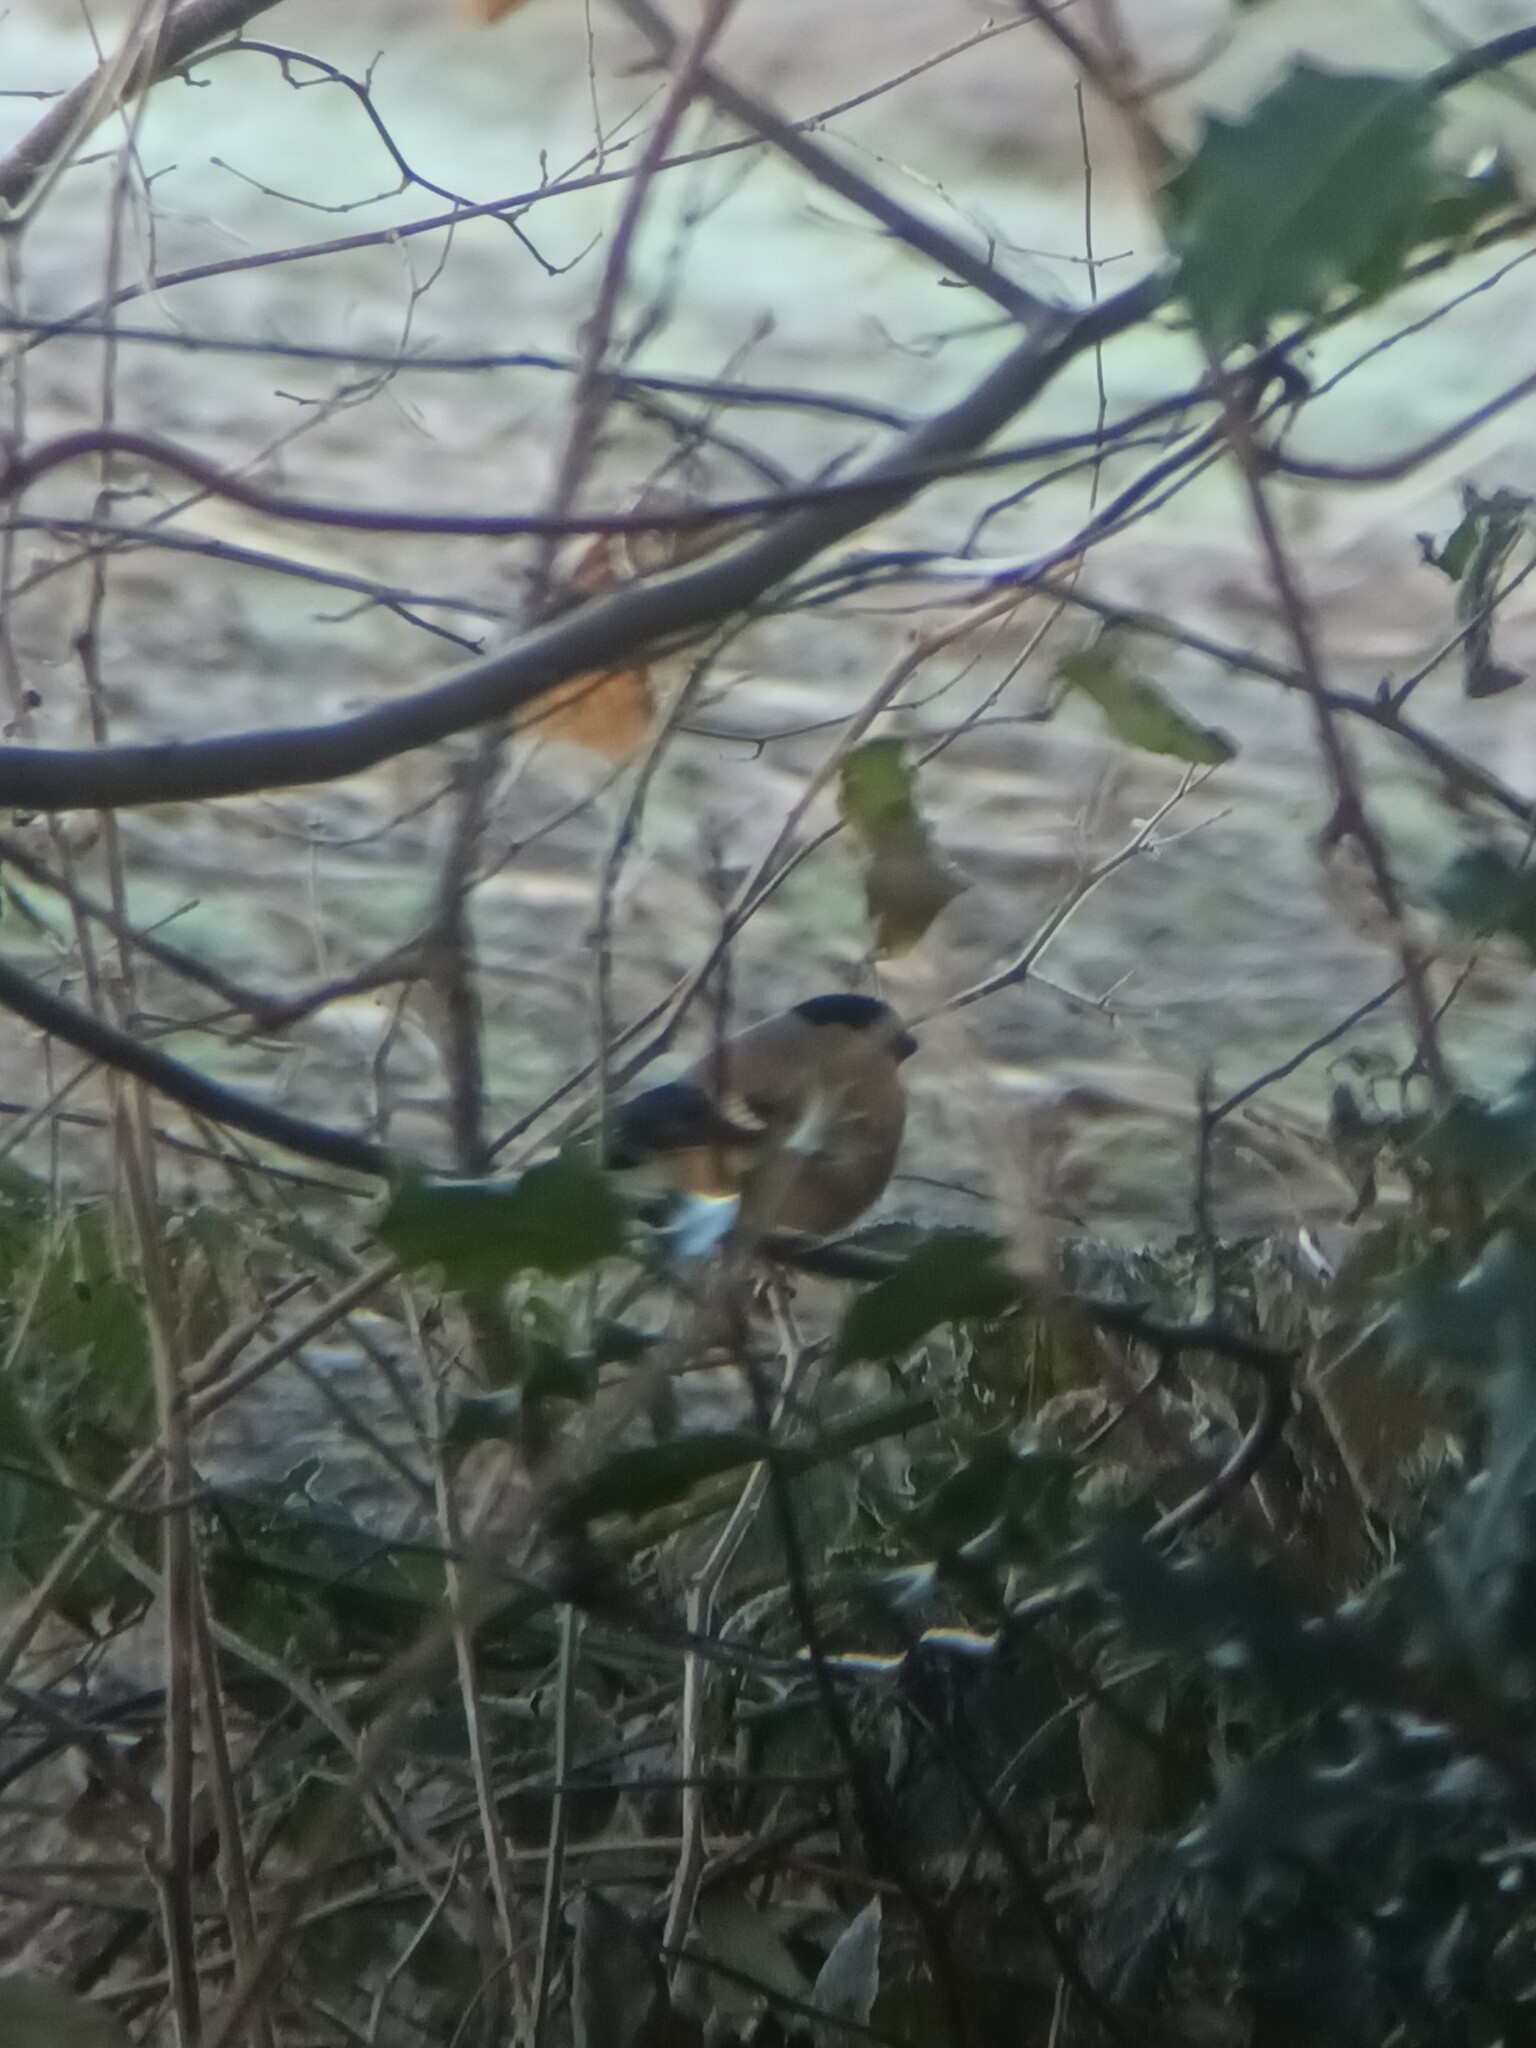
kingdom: Animalia
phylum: Chordata
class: Aves
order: Passeriformes
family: Fringillidae
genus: Pyrrhula
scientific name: Pyrrhula pyrrhula
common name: Eurasian bullfinch
